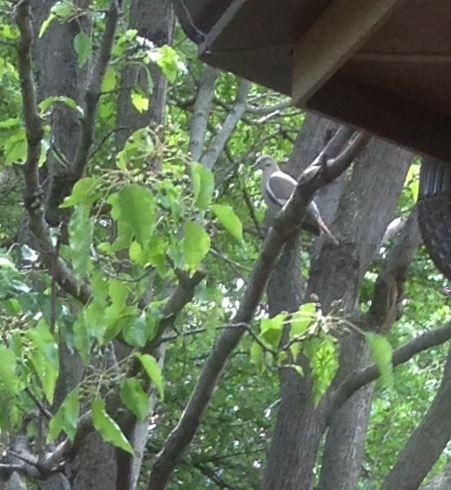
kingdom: Animalia
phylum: Chordata
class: Aves
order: Columbiformes
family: Columbidae
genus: Zenaida
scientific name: Zenaida asiatica
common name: White-winged dove
